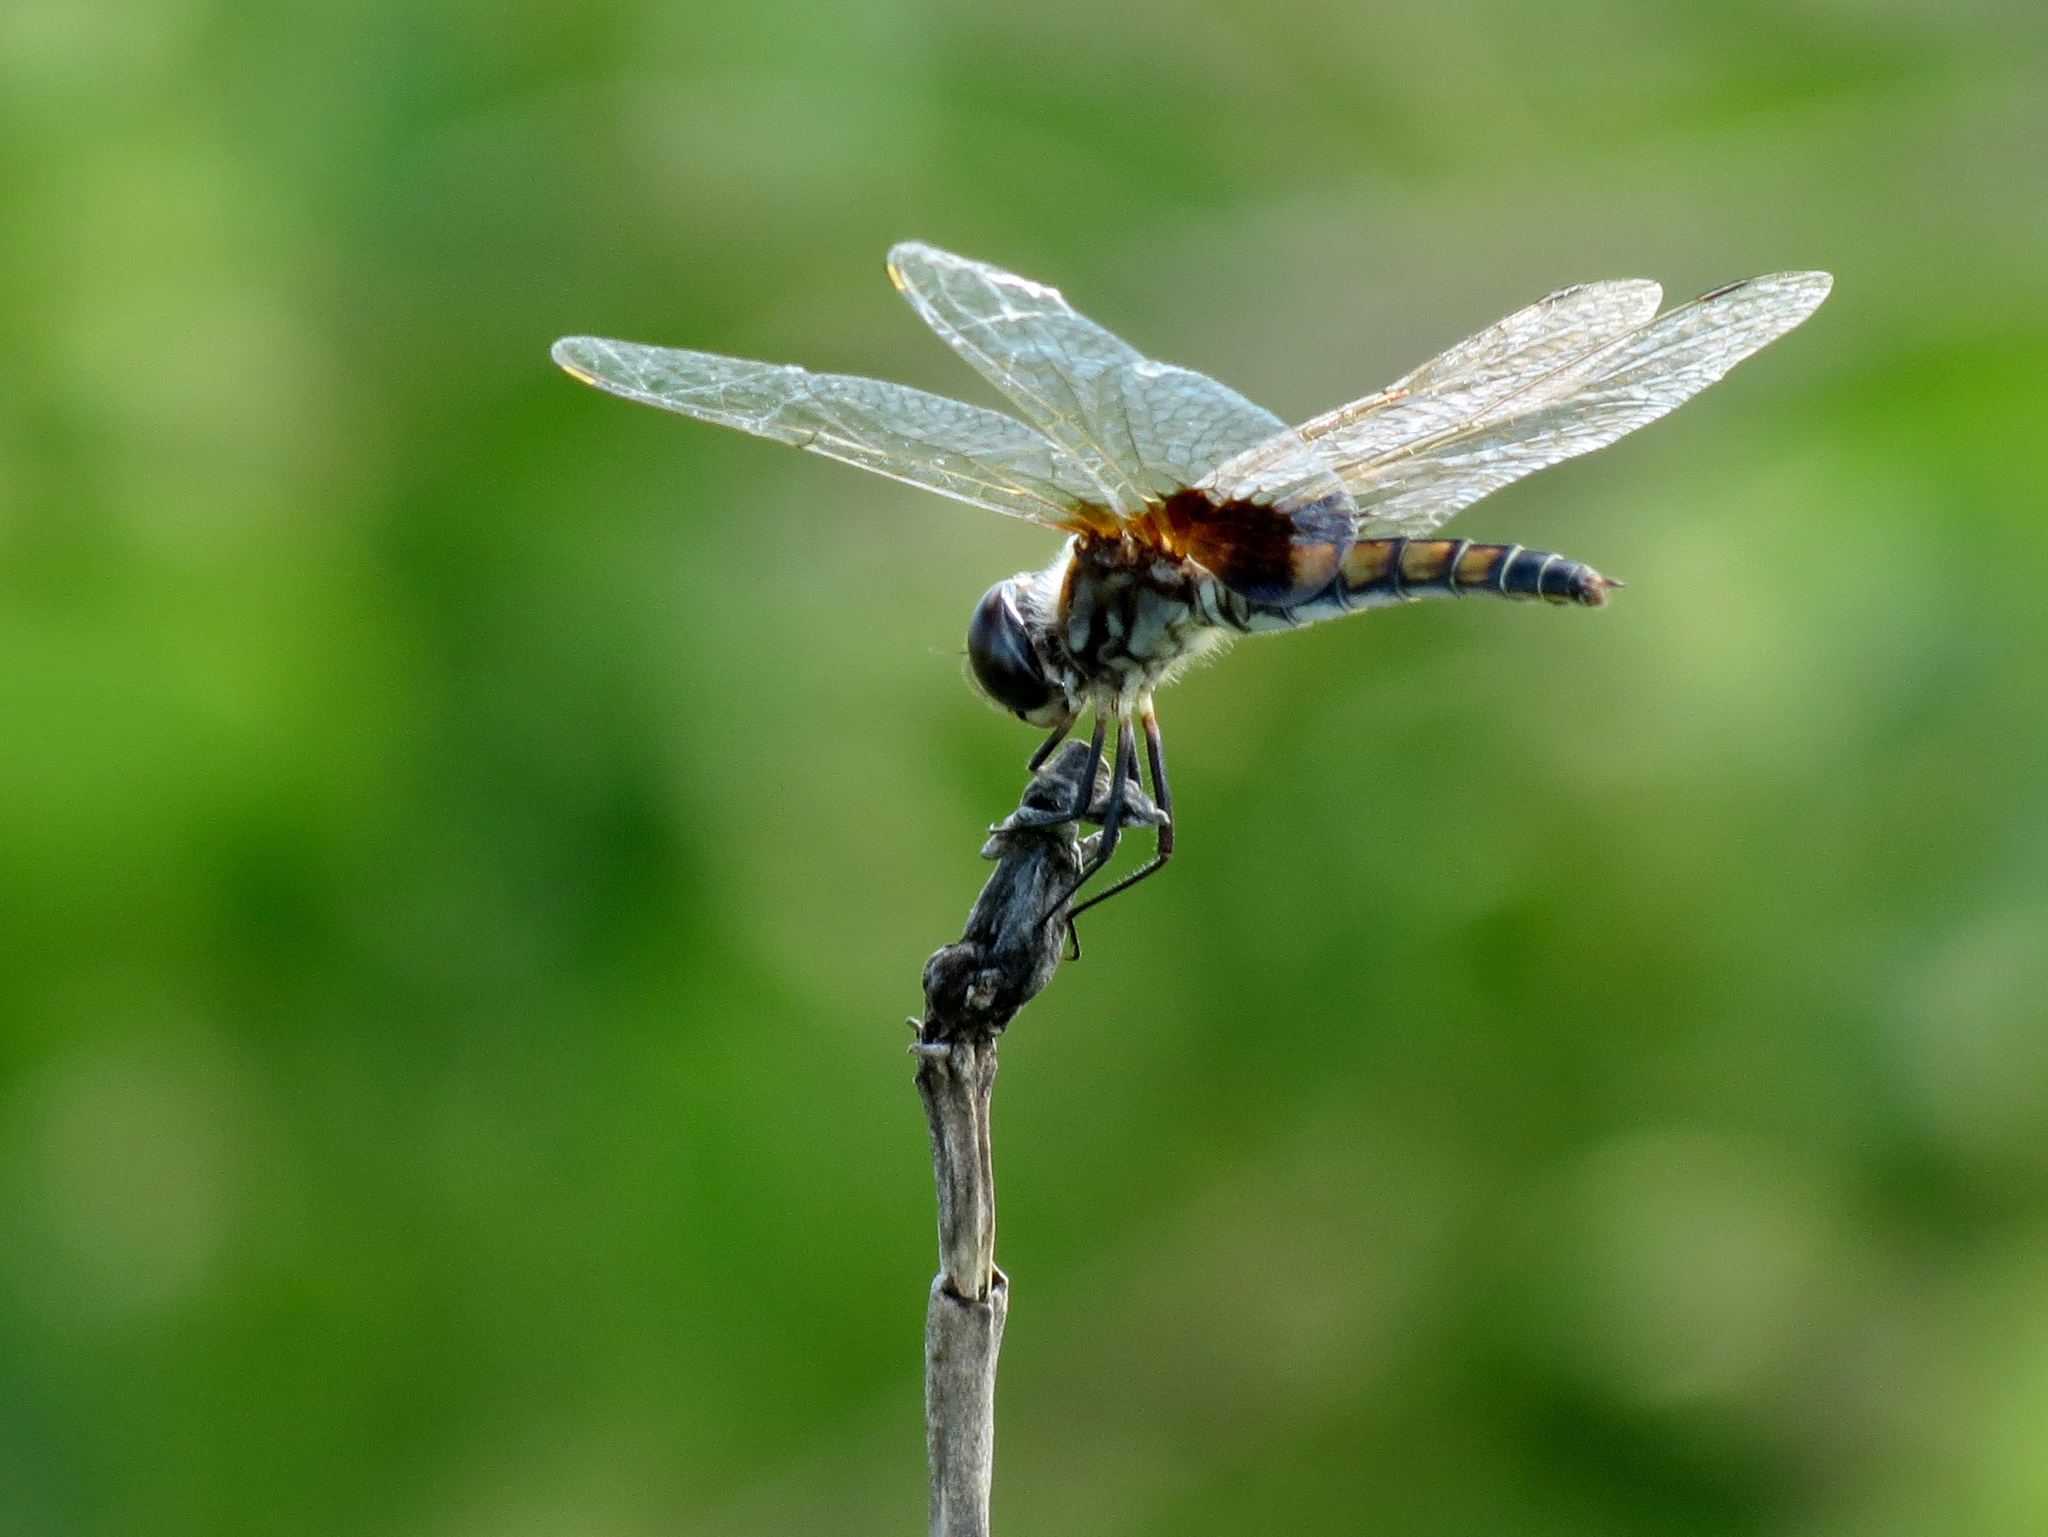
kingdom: Animalia
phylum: Arthropoda
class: Insecta
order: Odonata
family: Libellulidae
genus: Macrodiplax
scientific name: Macrodiplax balteata
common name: Marl pennant
